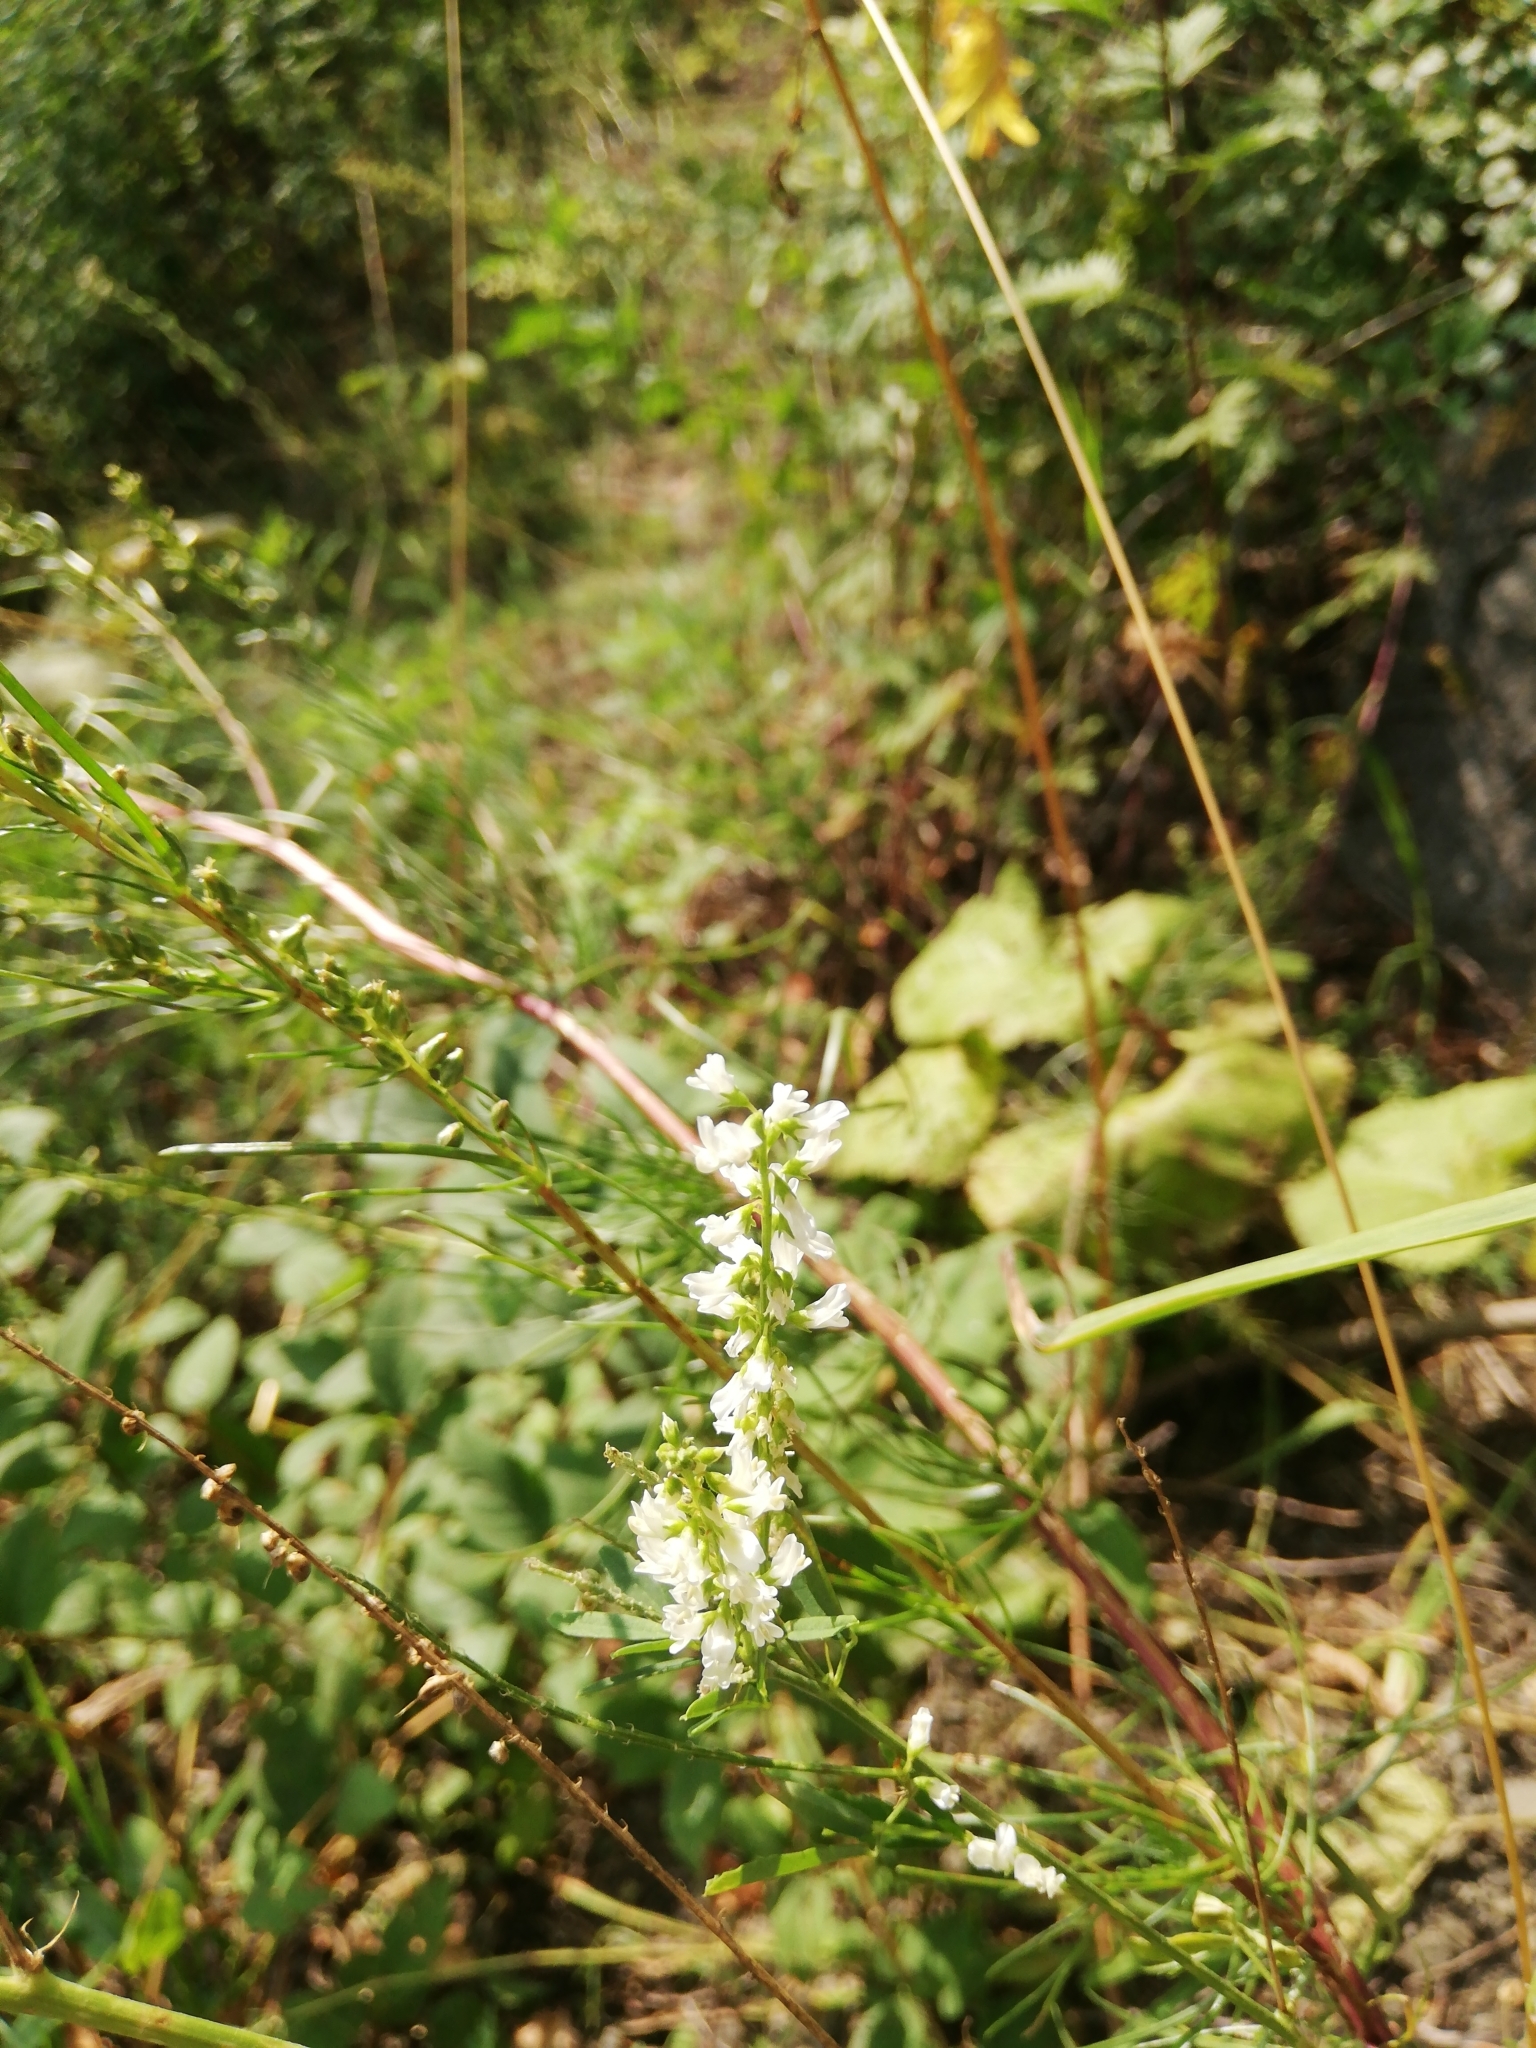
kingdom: Plantae
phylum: Tracheophyta
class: Magnoliopsida
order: Fabales
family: Fabaceae
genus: Melilotus
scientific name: Melilotus albus
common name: White melilot
